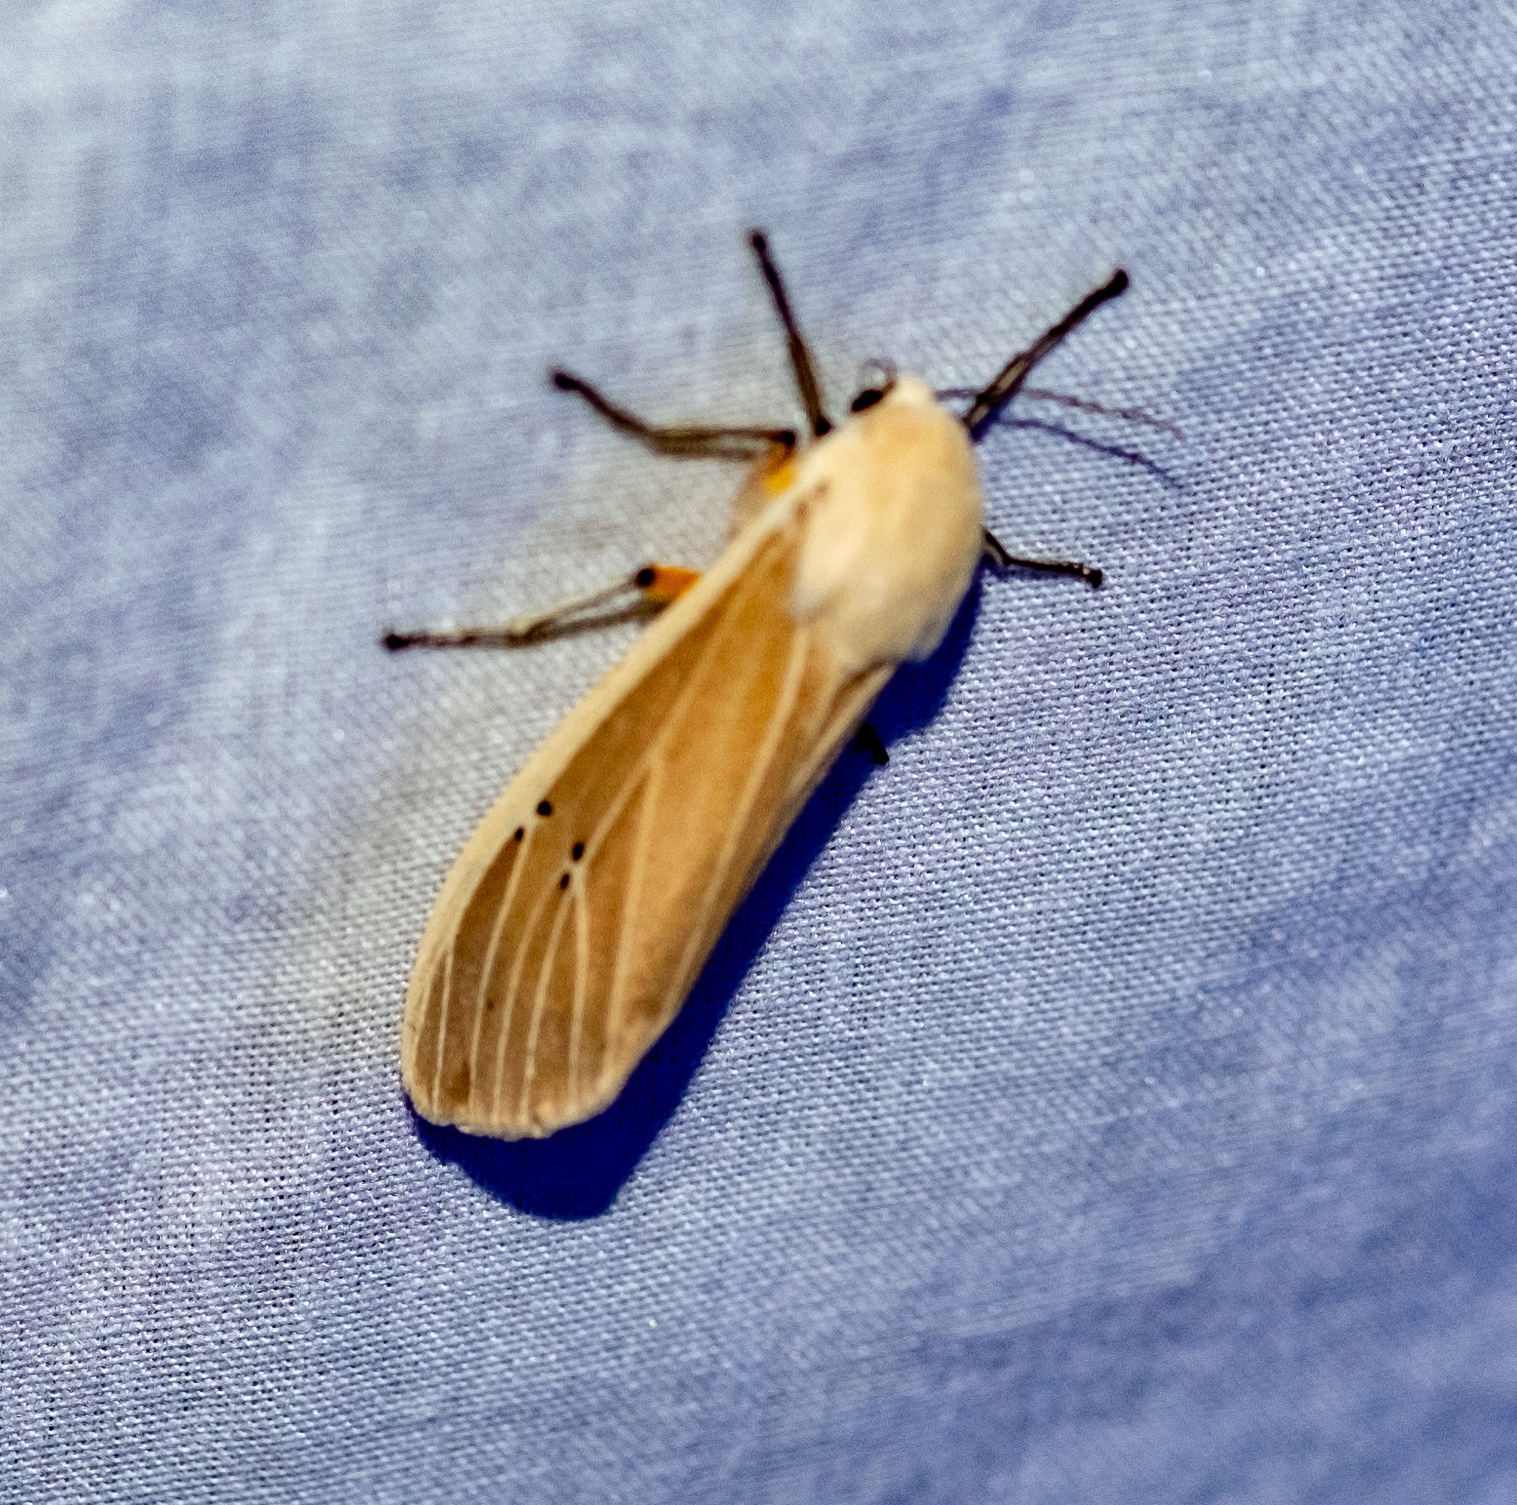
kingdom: Animalia
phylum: Arthropoda
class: Insecta
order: Lepidoptera
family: Erebidae
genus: Creatonotos
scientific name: Creatonotos transiens
